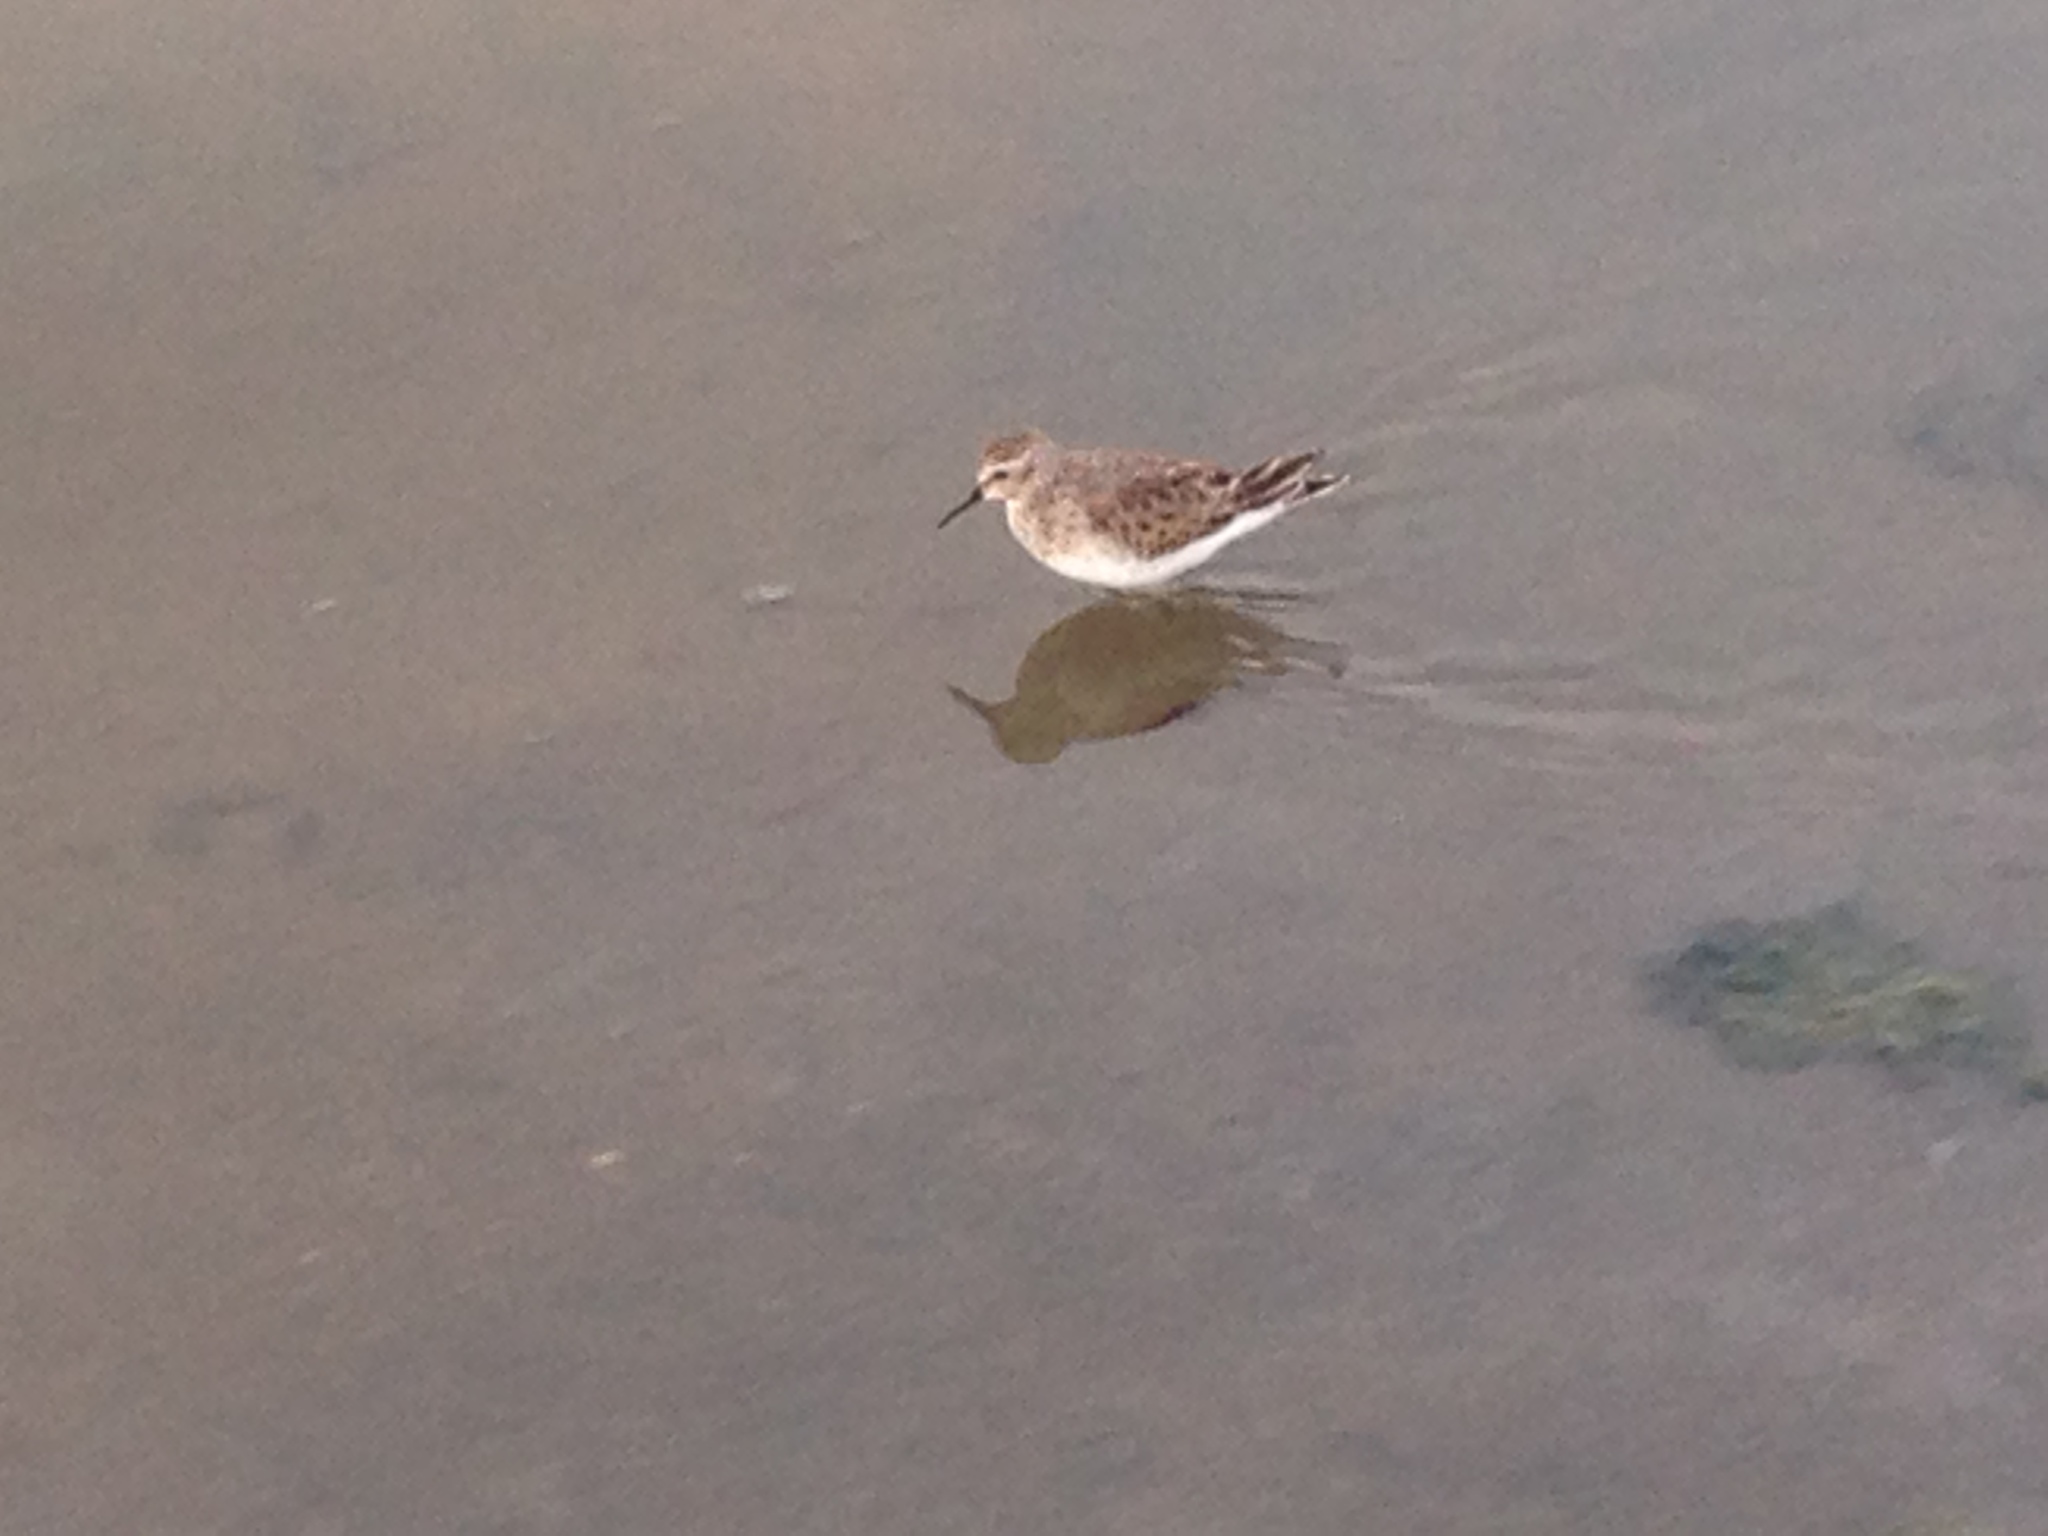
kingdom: Animalia
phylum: Chordata
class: Aves
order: Charadriiformes
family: Scolopacidae
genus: Calidris
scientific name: Calidris minutilla
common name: Least sandpiper
